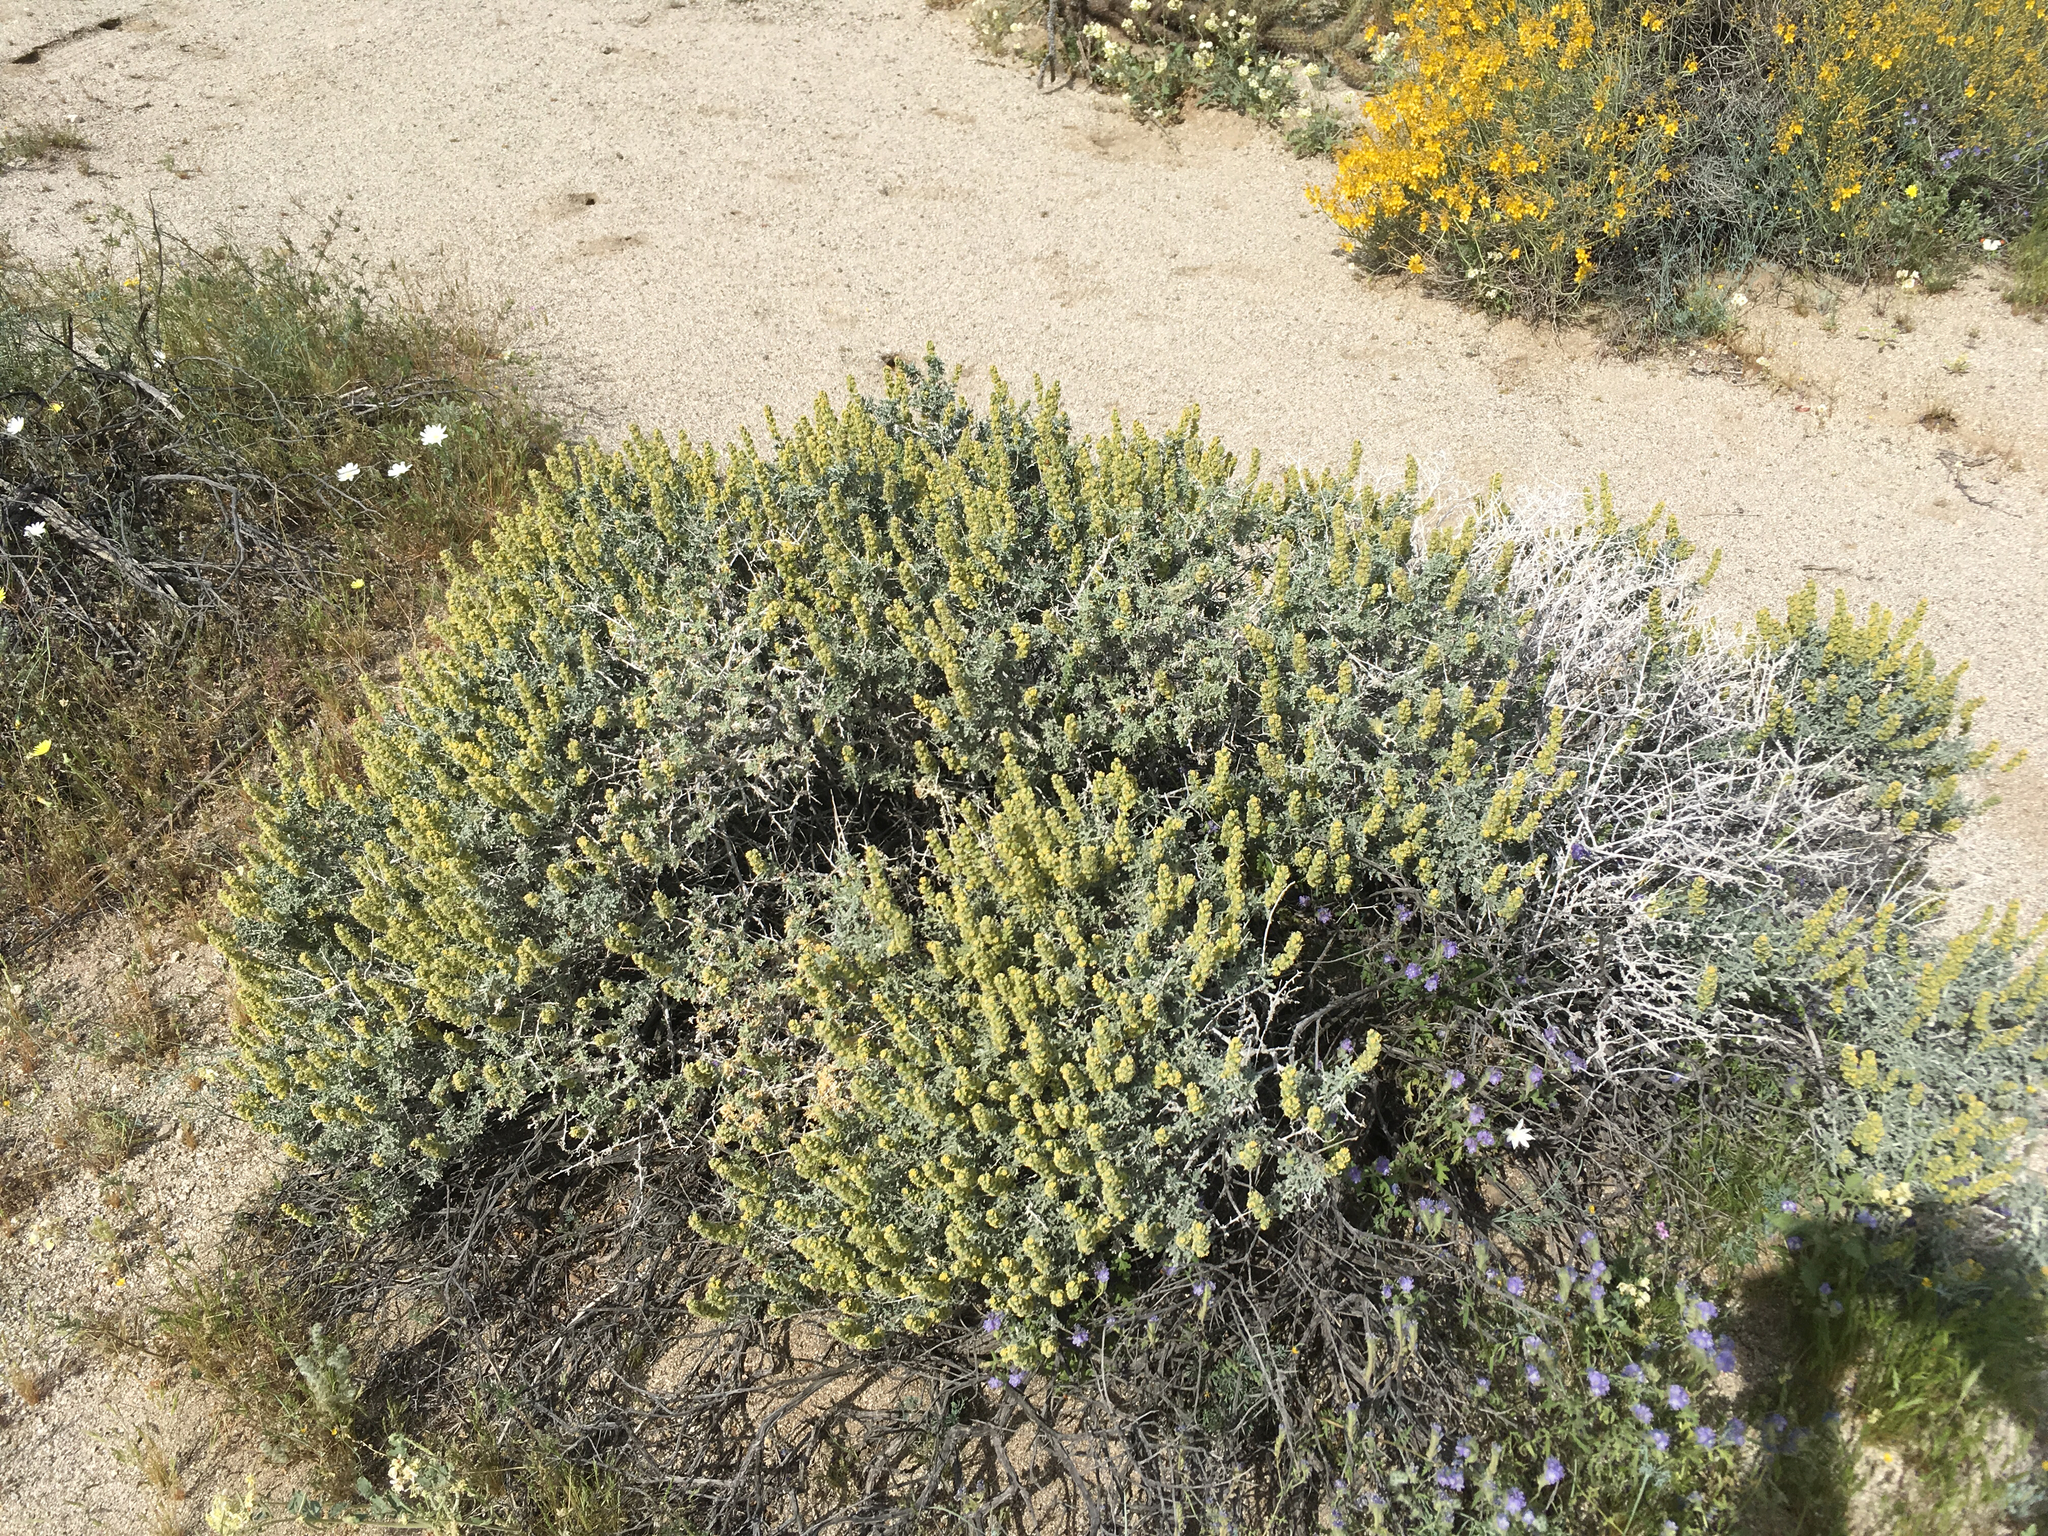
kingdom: Plantae
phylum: Tracheophyta
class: Magnoliopsida
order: Asterales
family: Asteraceae
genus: Ambrosia
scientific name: Ambrosia dumosa
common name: Bur-sage
